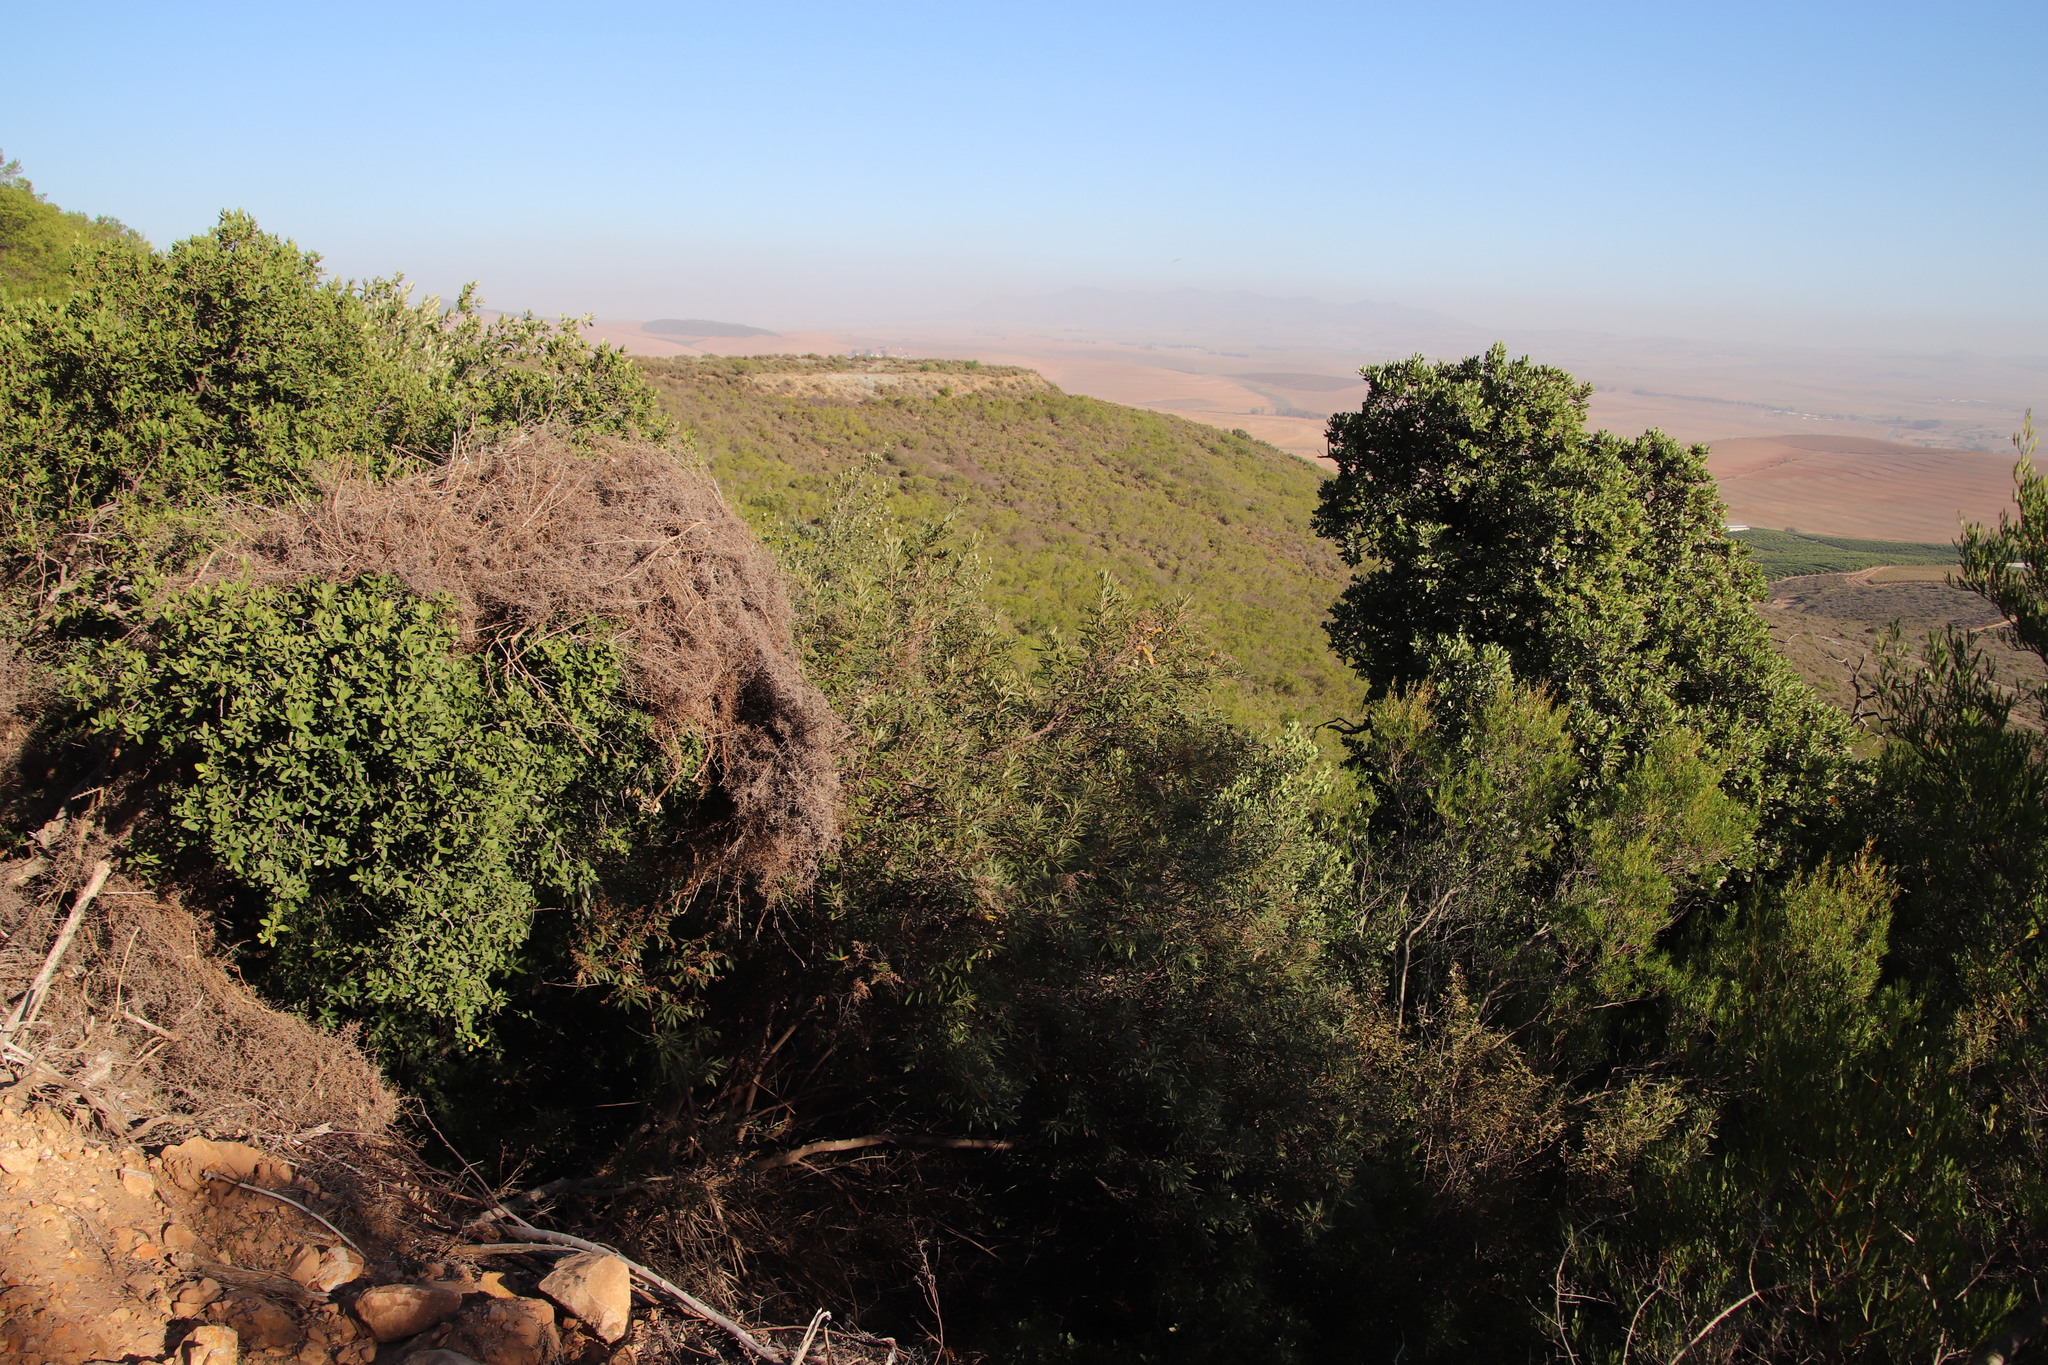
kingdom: Plantae
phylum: Tracheophyta
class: Magnoliopsida
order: Sapindales
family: Anacardiaceae
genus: Searsia
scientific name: Searsia angustifolia
